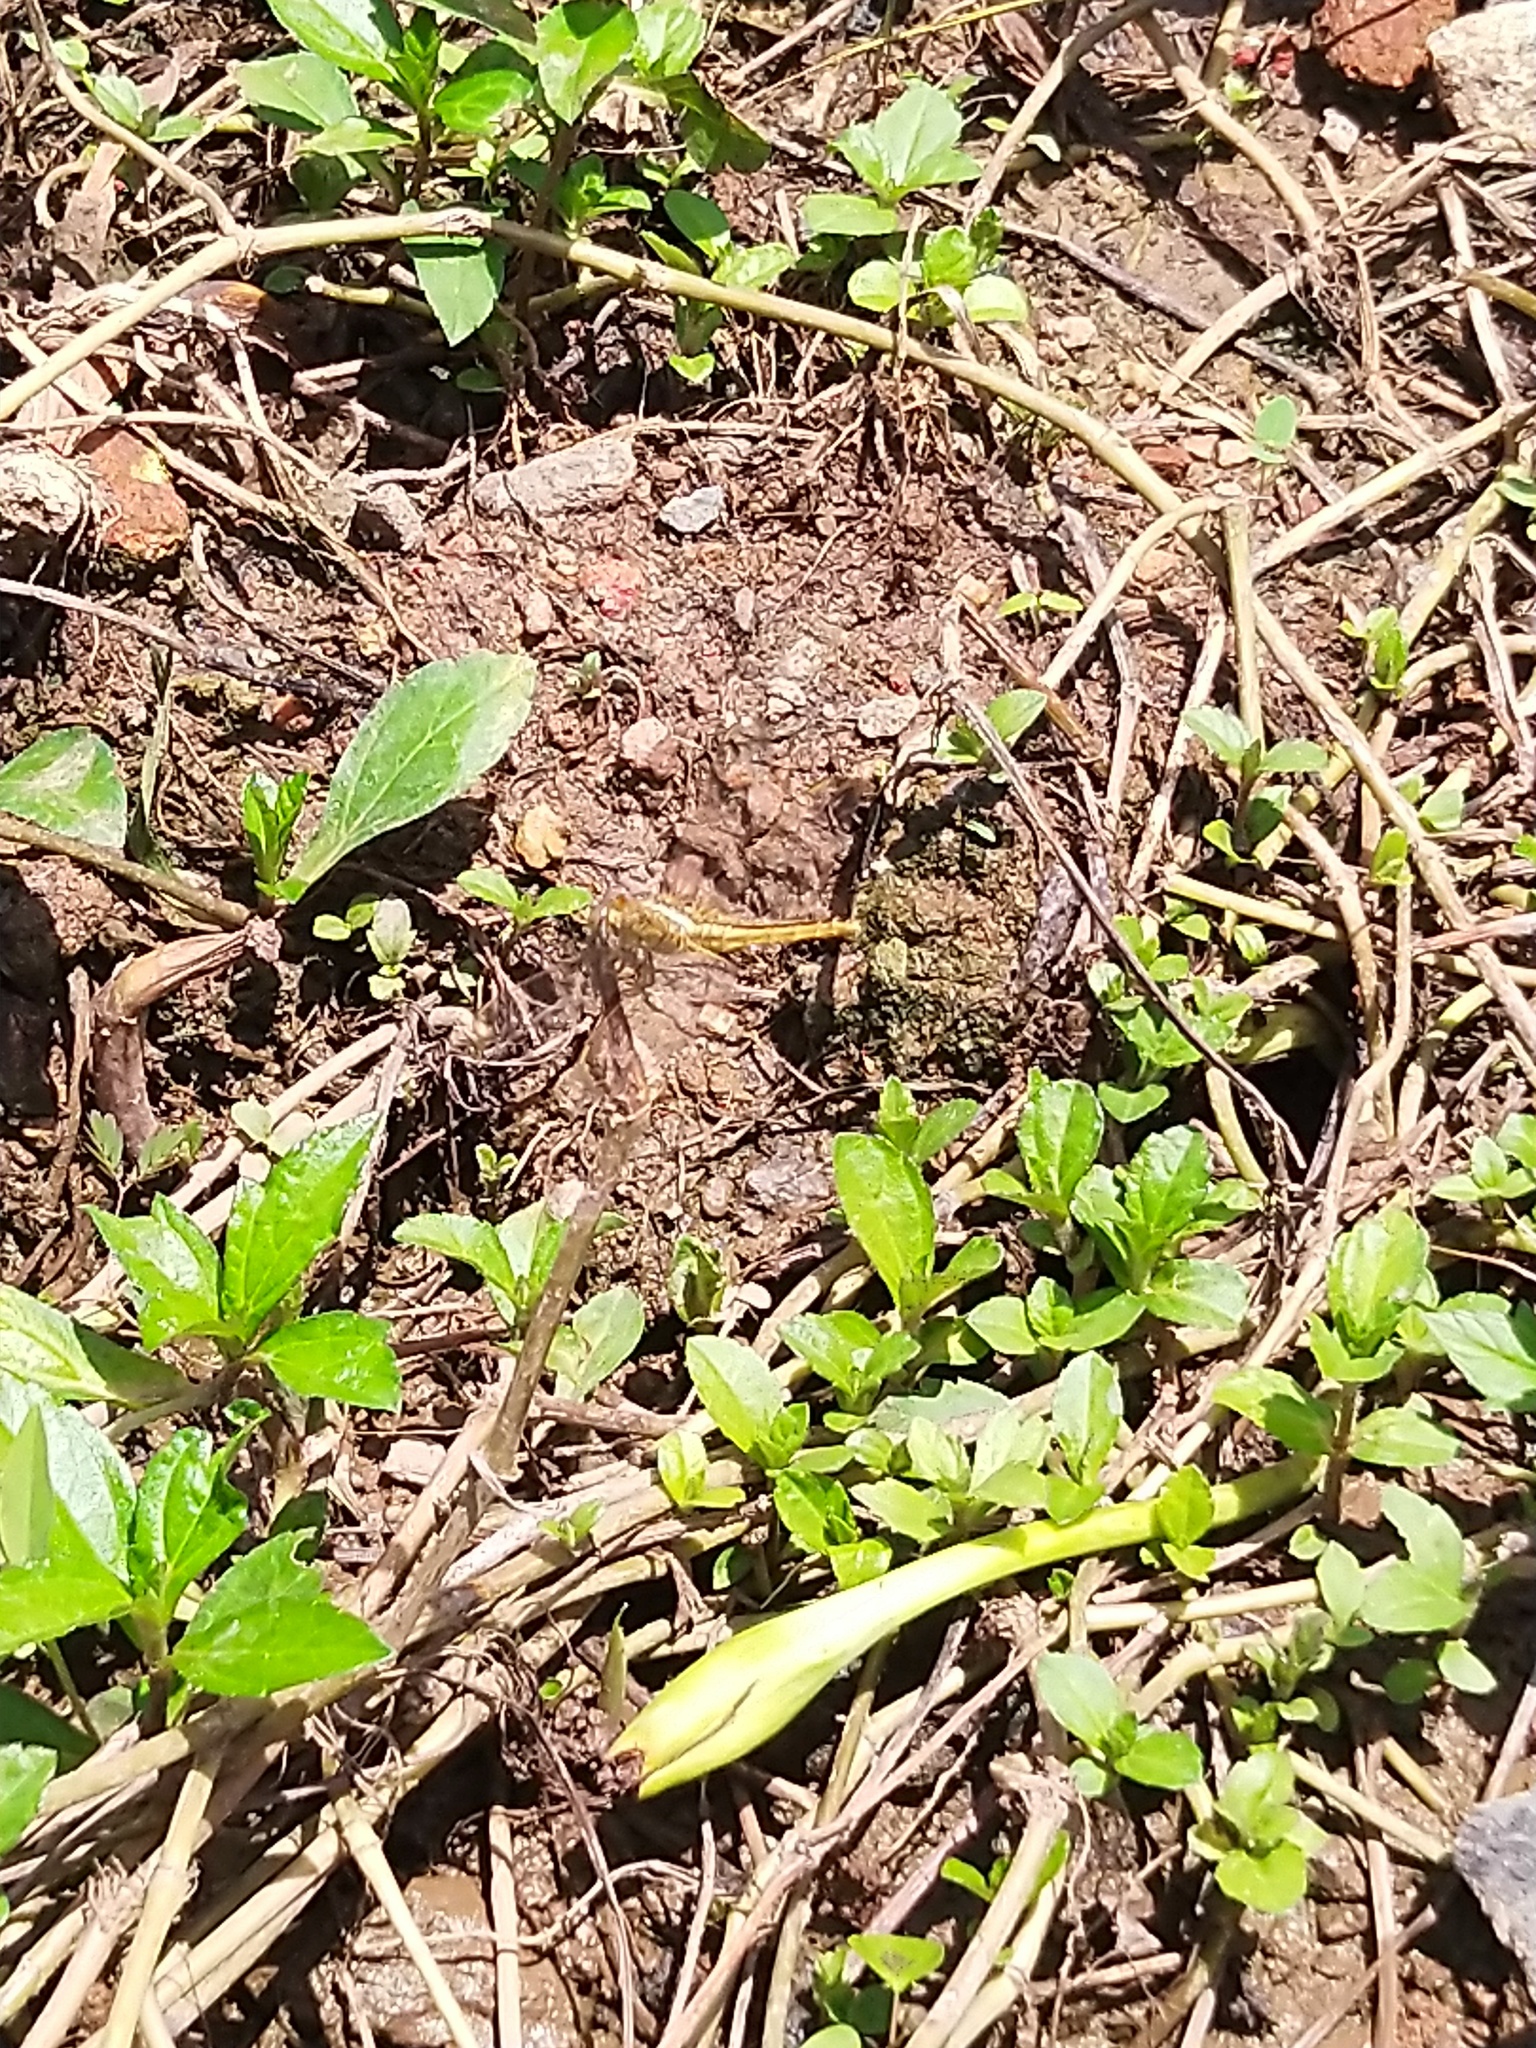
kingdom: Animalia
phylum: Arthropoda
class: Insecta
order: Odonata
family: Libellulidae
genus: Crocothemis
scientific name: Crocothemis servilia
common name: Scarlet skimmer
